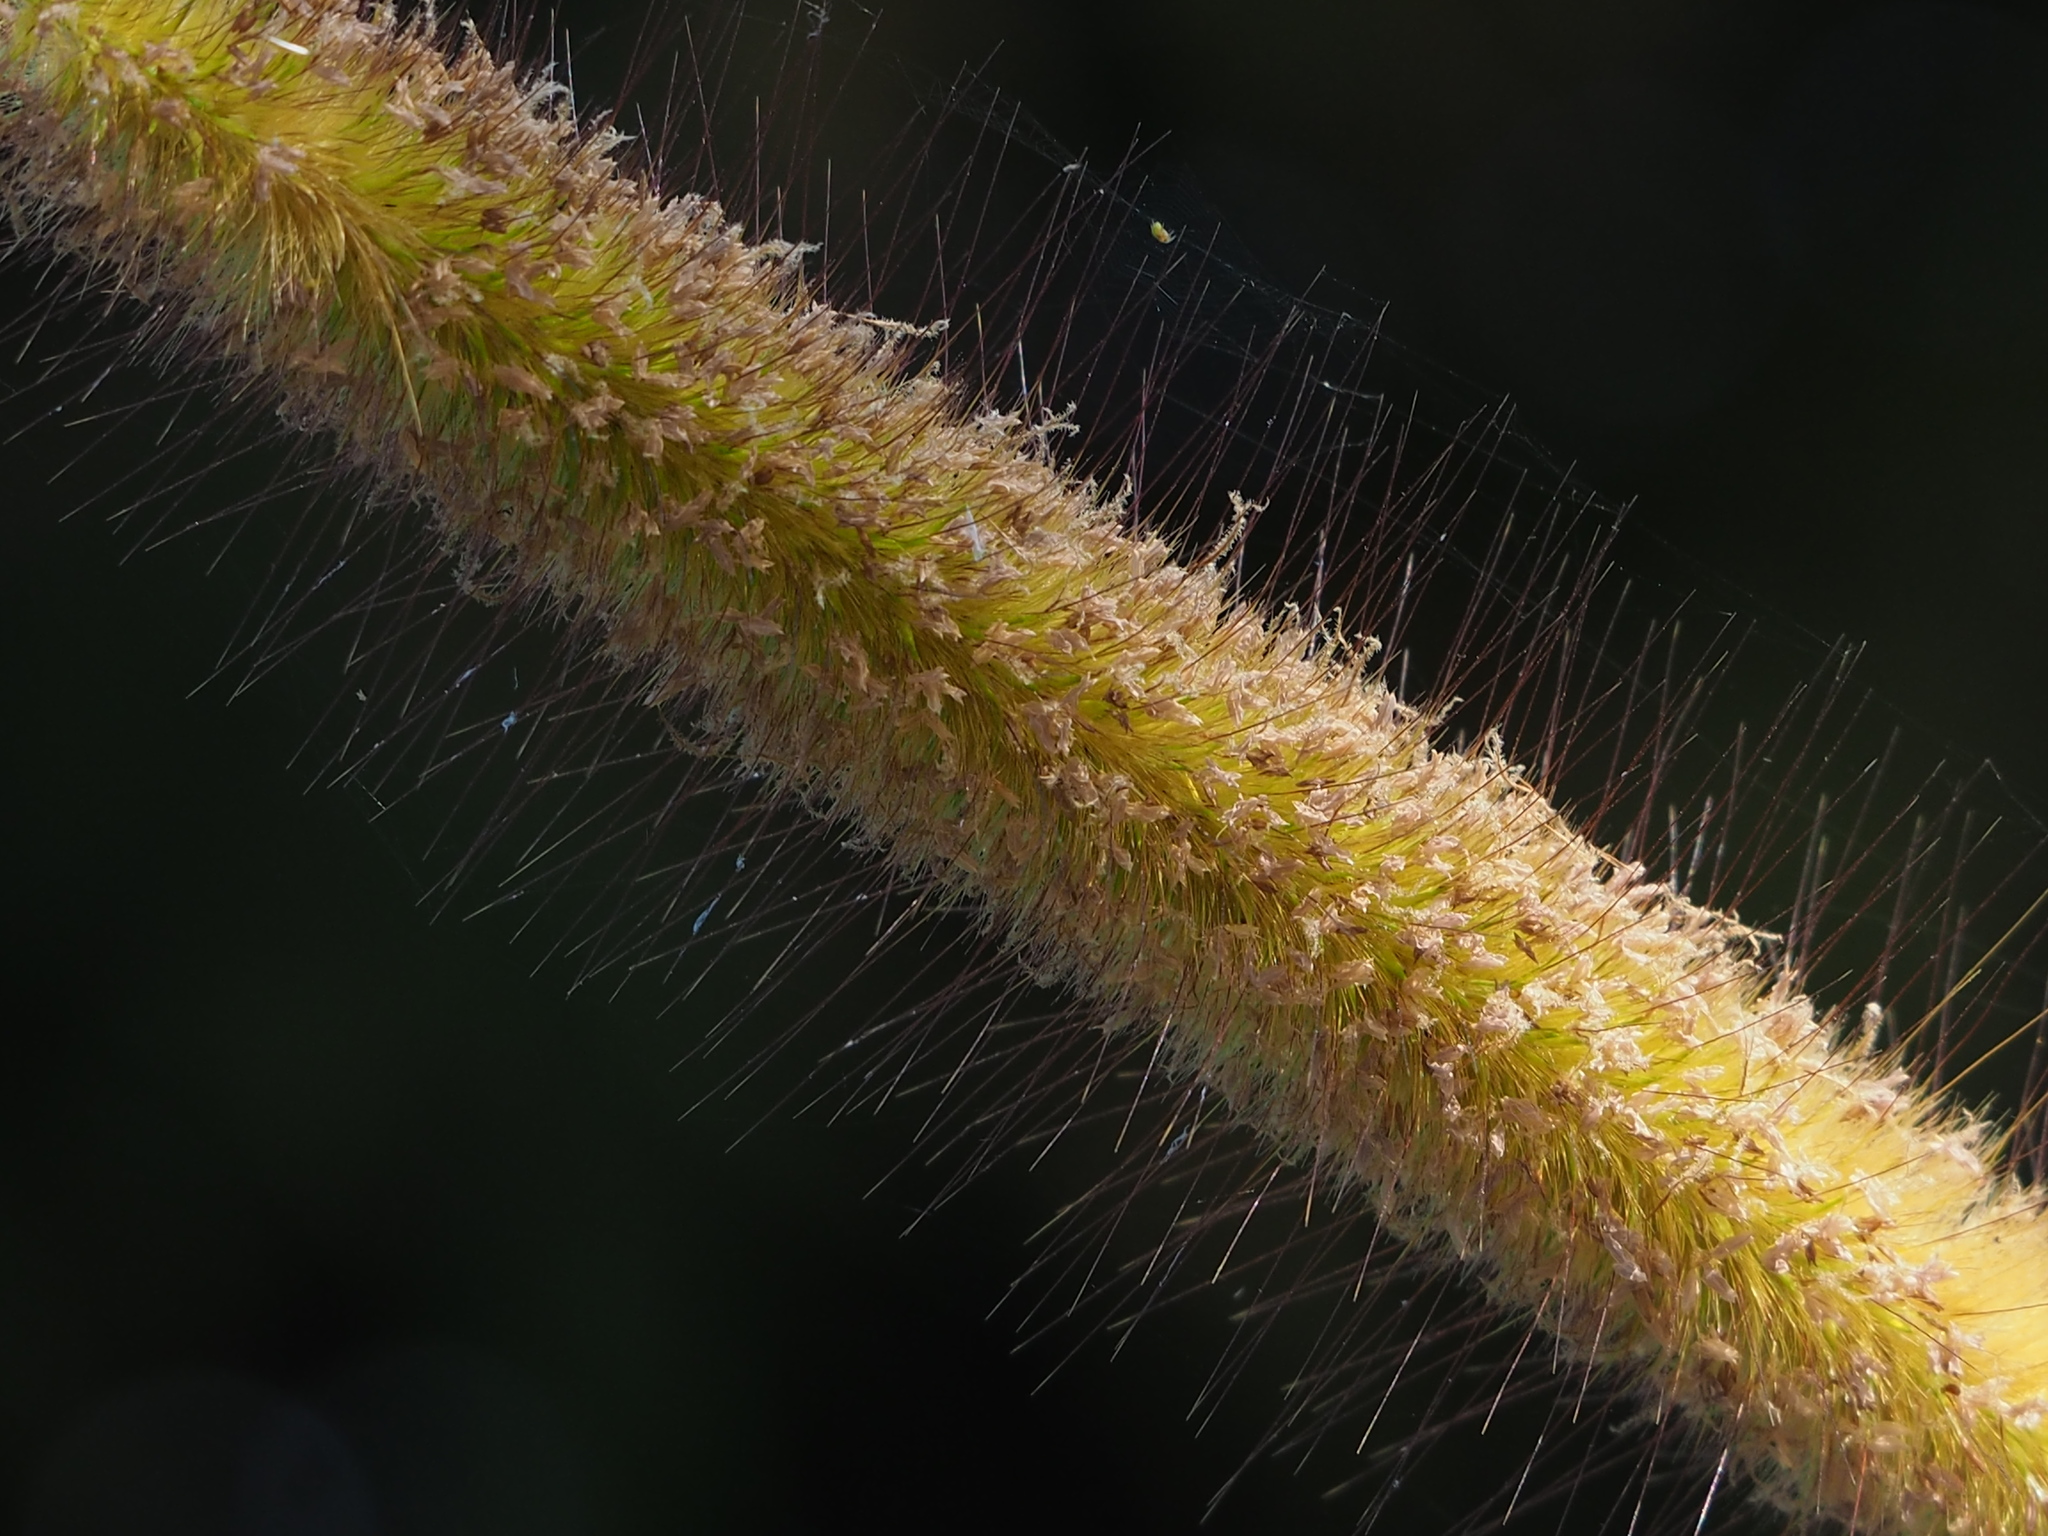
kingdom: Plantae
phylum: Tracheophyta
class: Liliopsida
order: Poales
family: Poaceae
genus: Cenchrus
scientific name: Cenchrus purpureus
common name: Elephant grass
